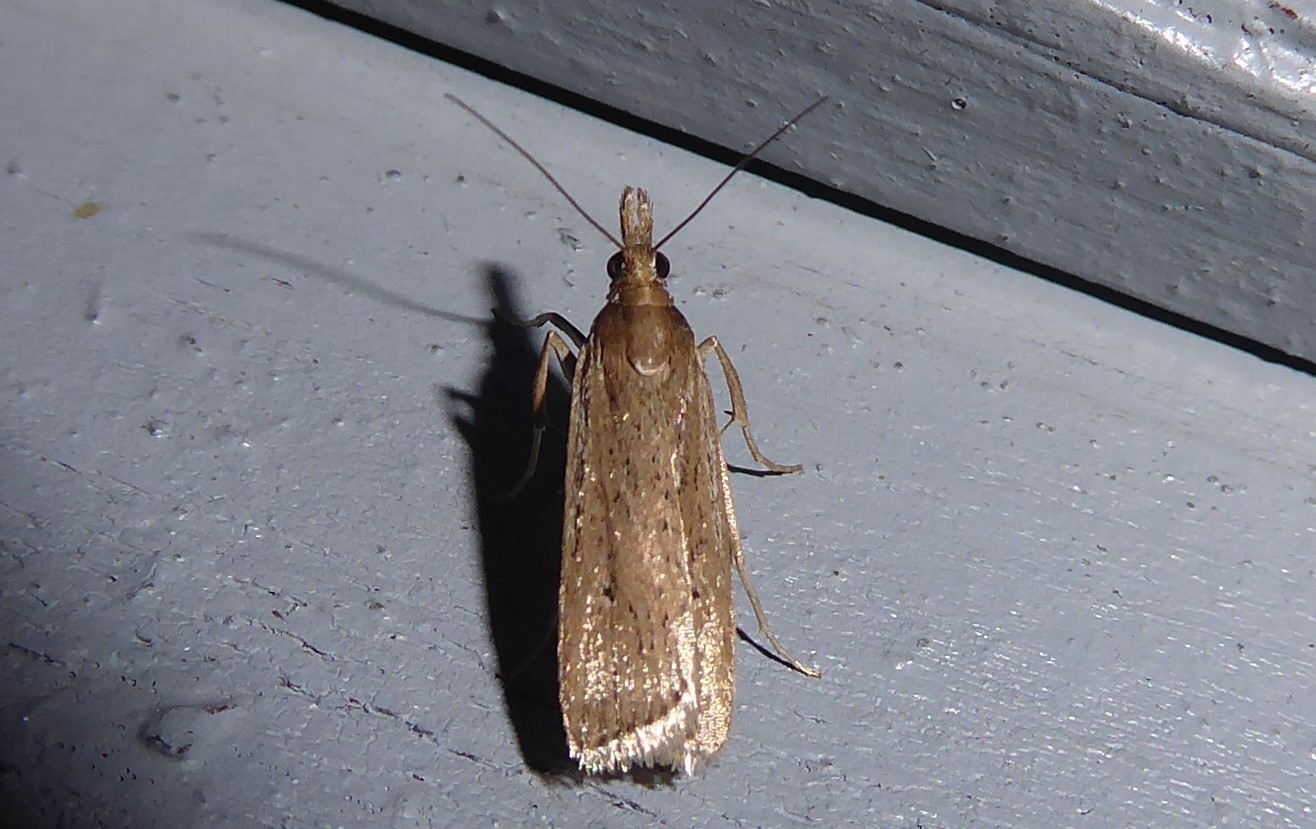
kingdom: Animalia
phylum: Arthropoda
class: Insecta
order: Lepidoptera
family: Crambidae
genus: Eudonia
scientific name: Eudonia sabulosella
